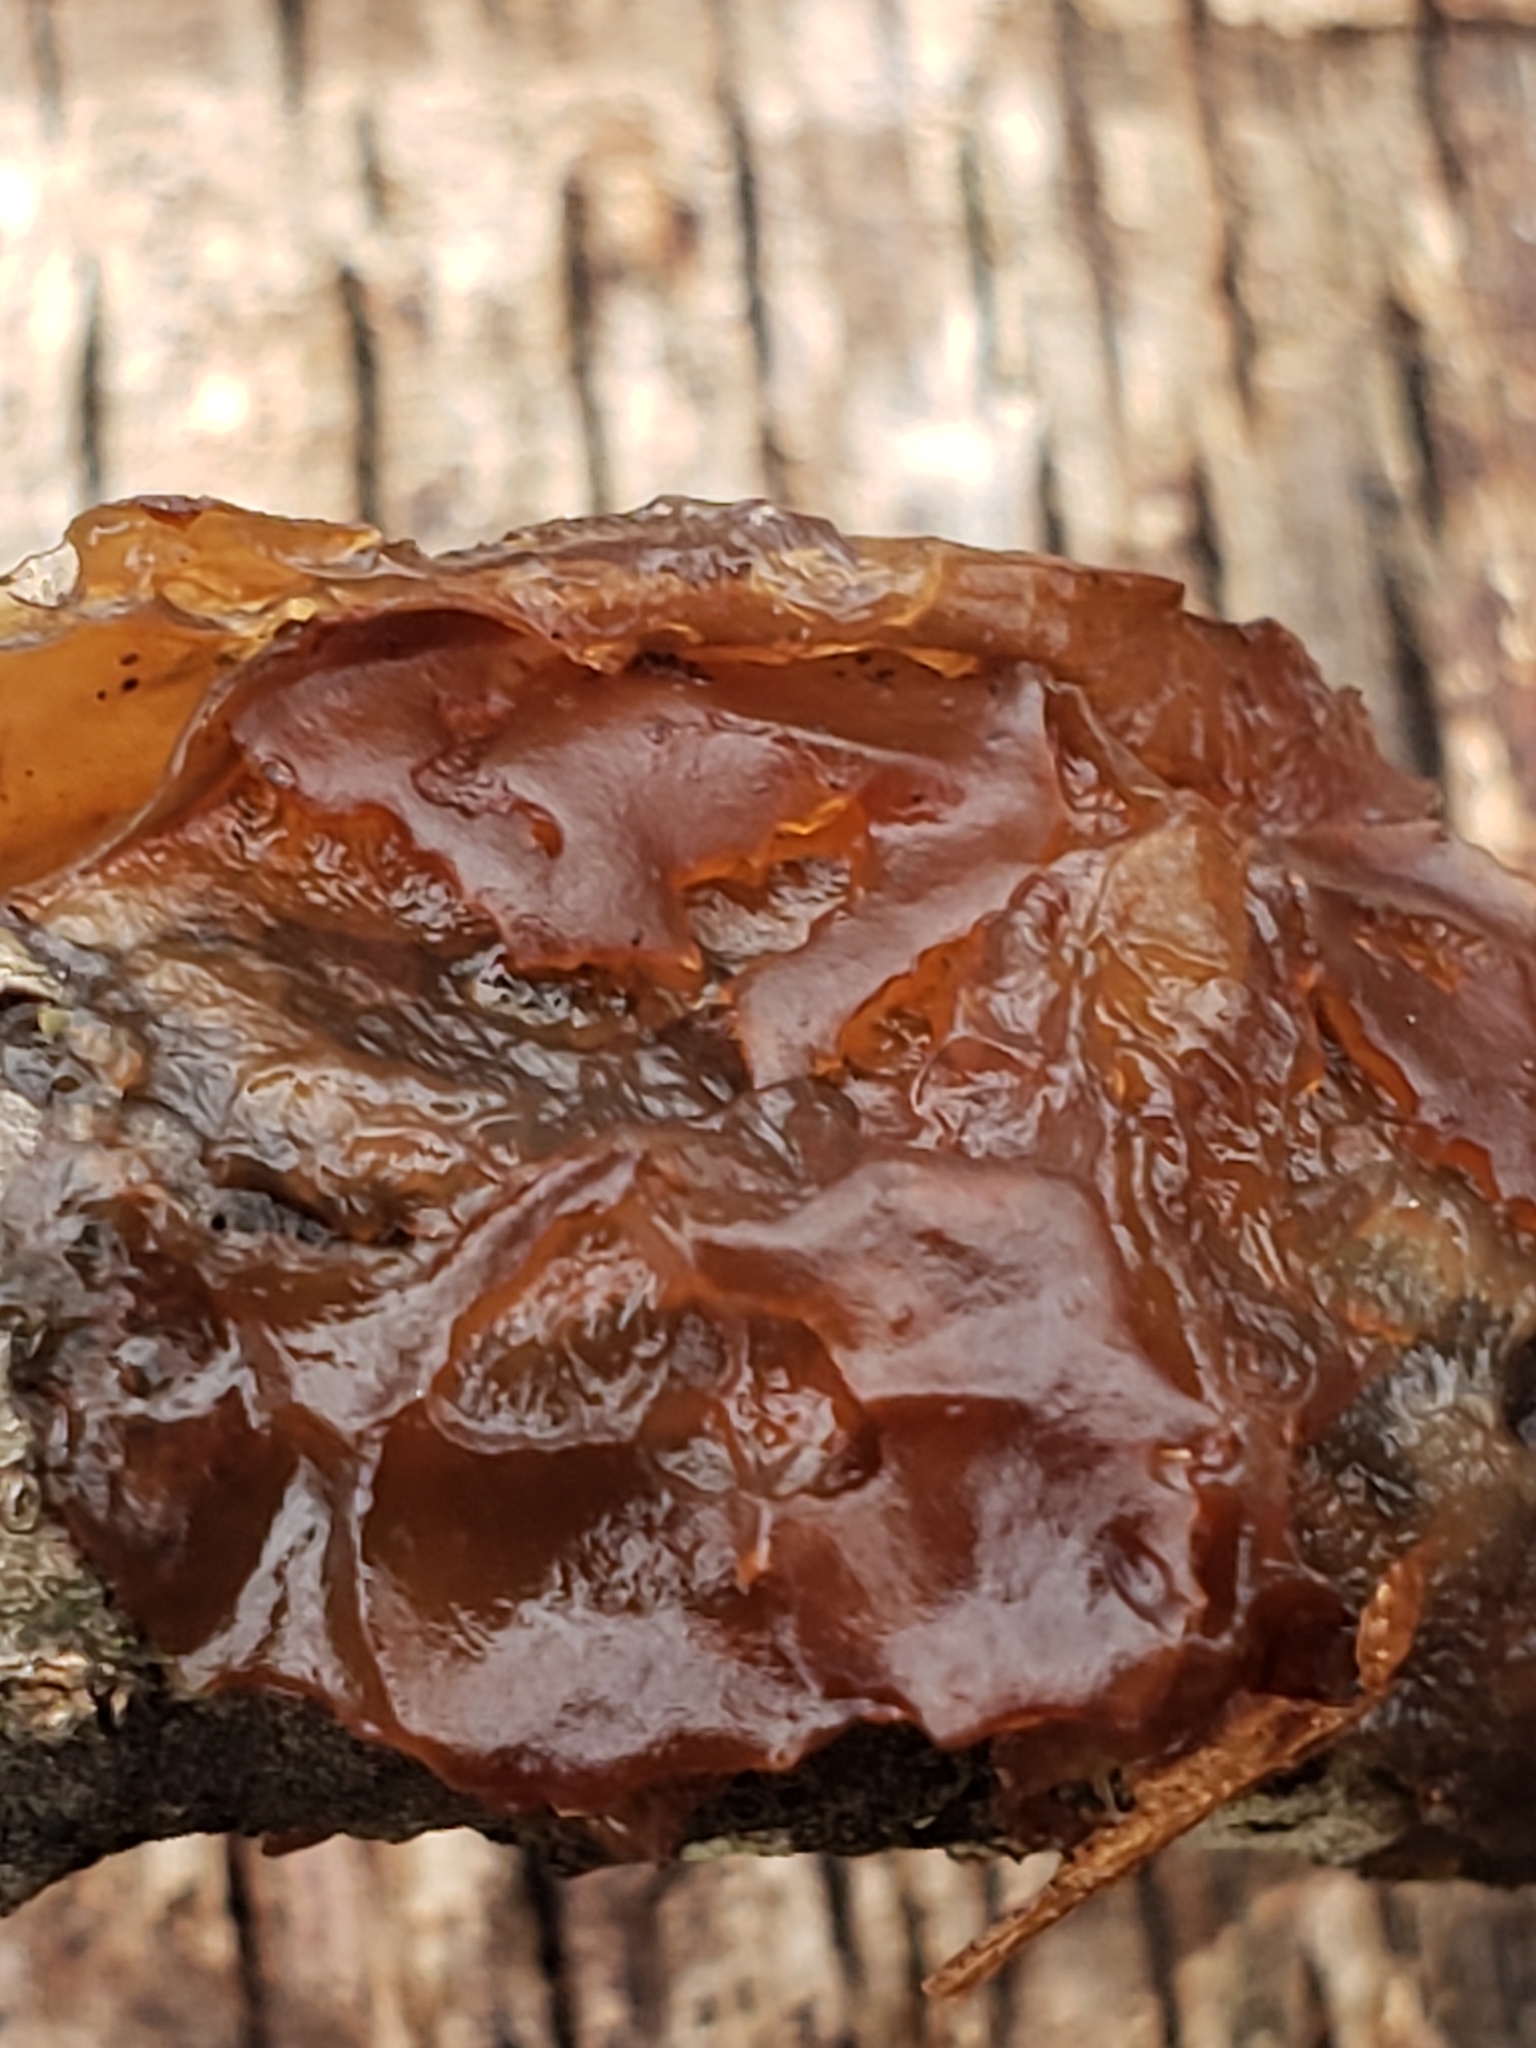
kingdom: Fungi
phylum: Basidiomycota
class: Agaricomycetes
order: Auriculariales
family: Auriculariaceae
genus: Exidia
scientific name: Exidia
